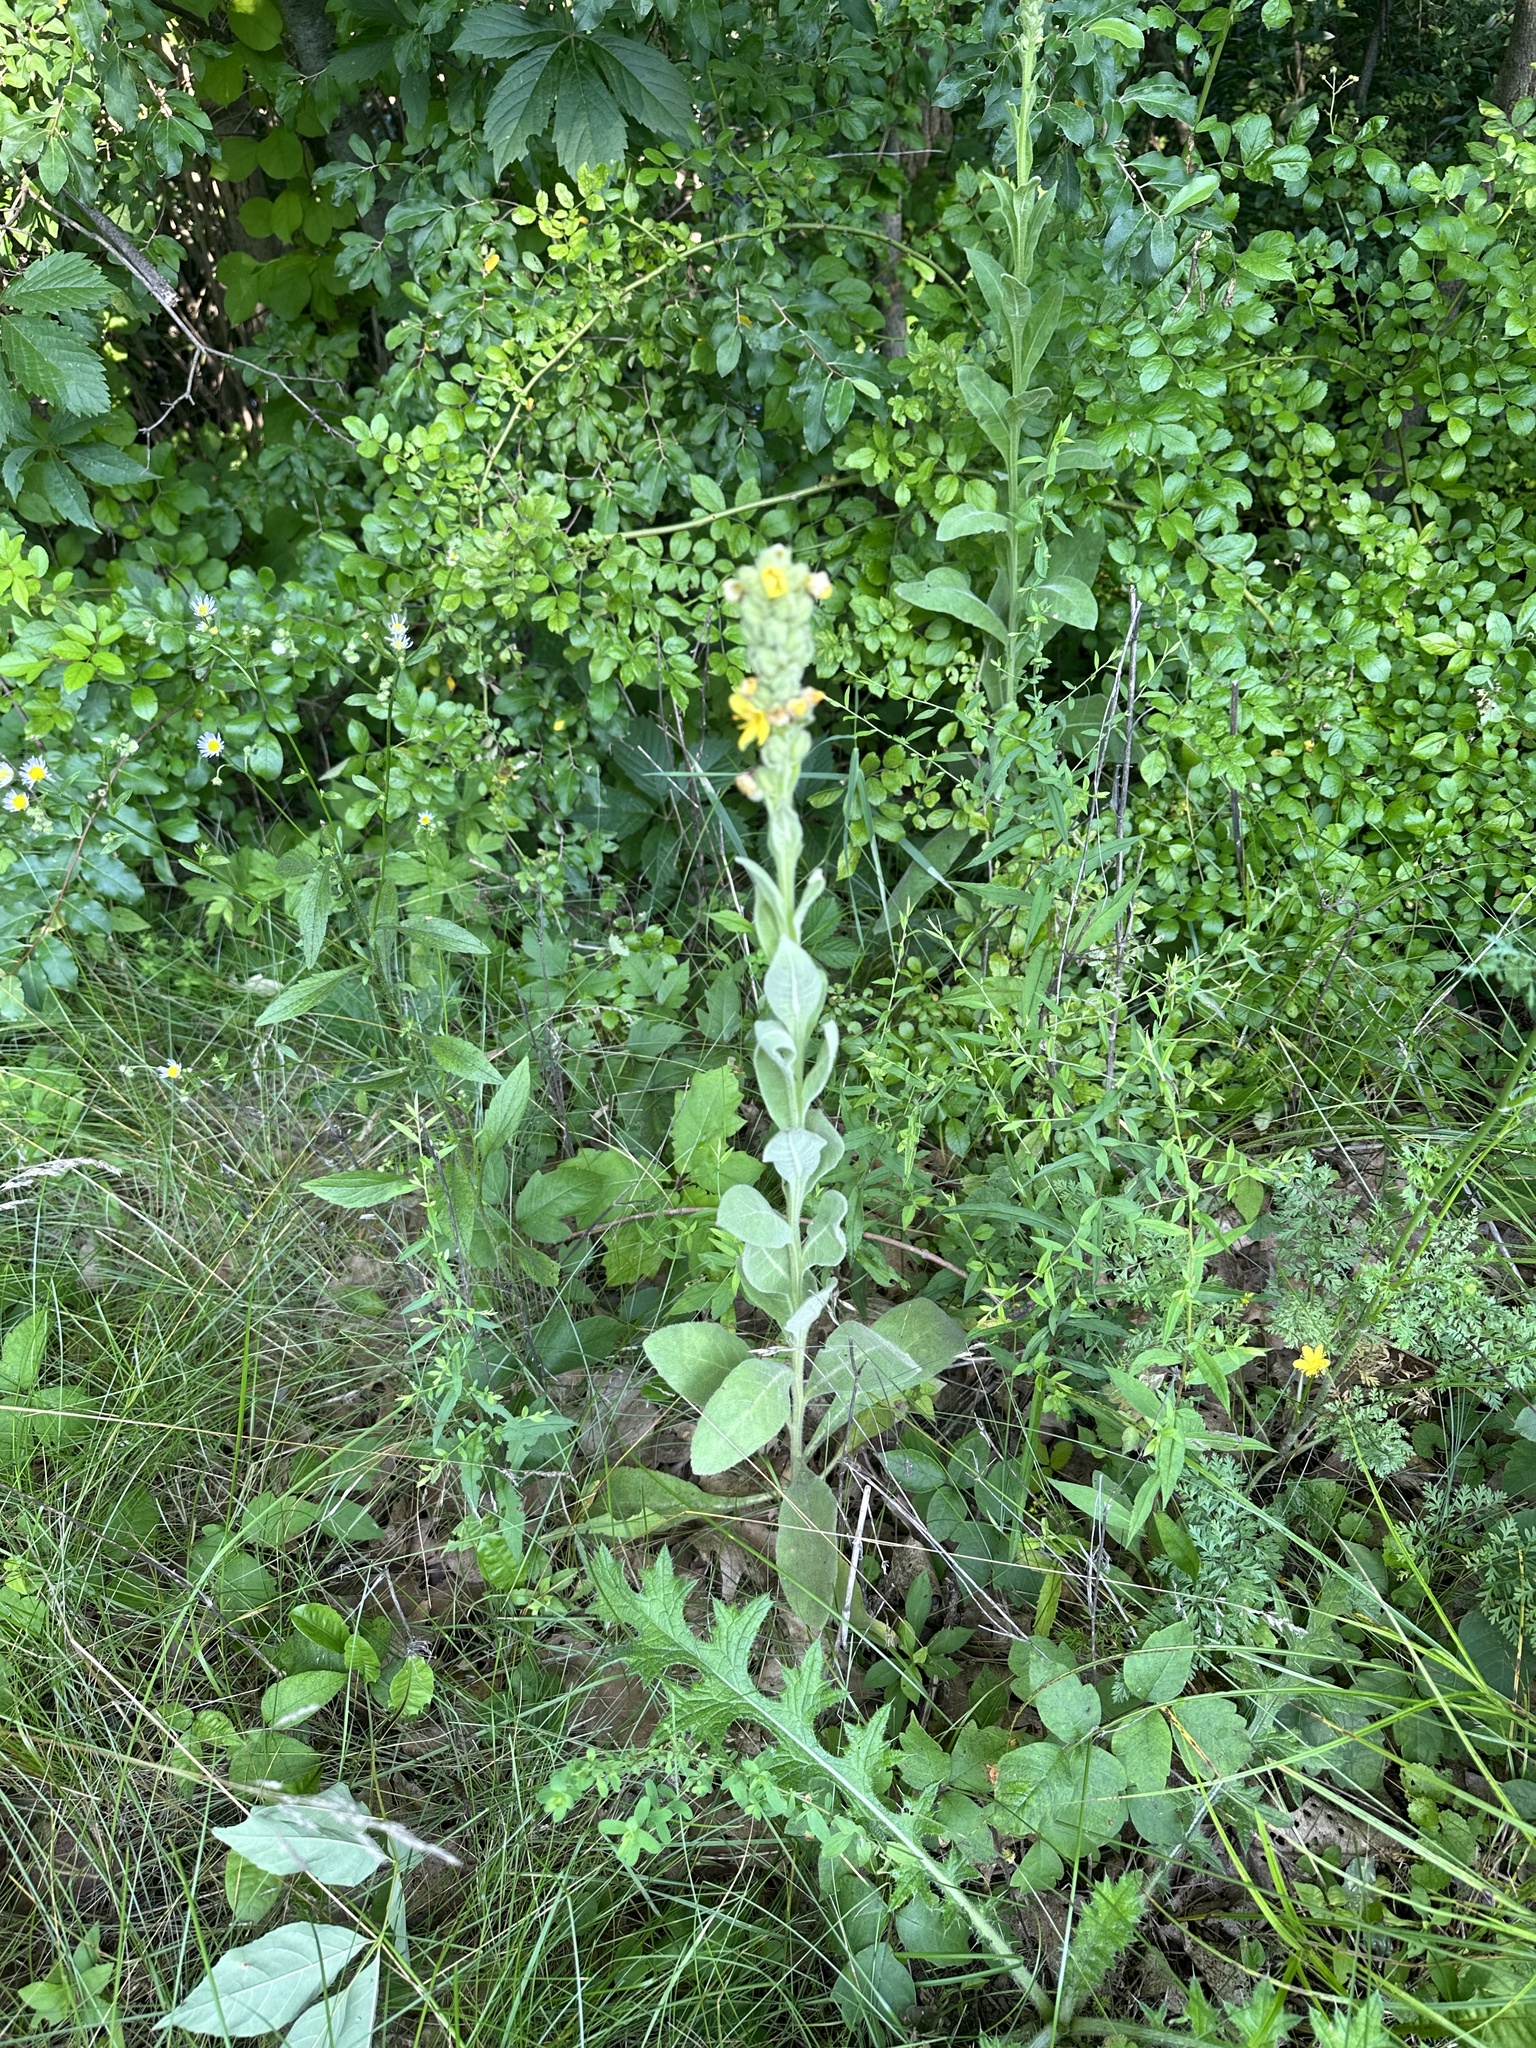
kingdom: Plantae
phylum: Tracheophyta
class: Magnoliopsida
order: Lamiales
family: Scrophulariaceae
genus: Verbascum
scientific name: Verbascum thapsus
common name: Common mullein
